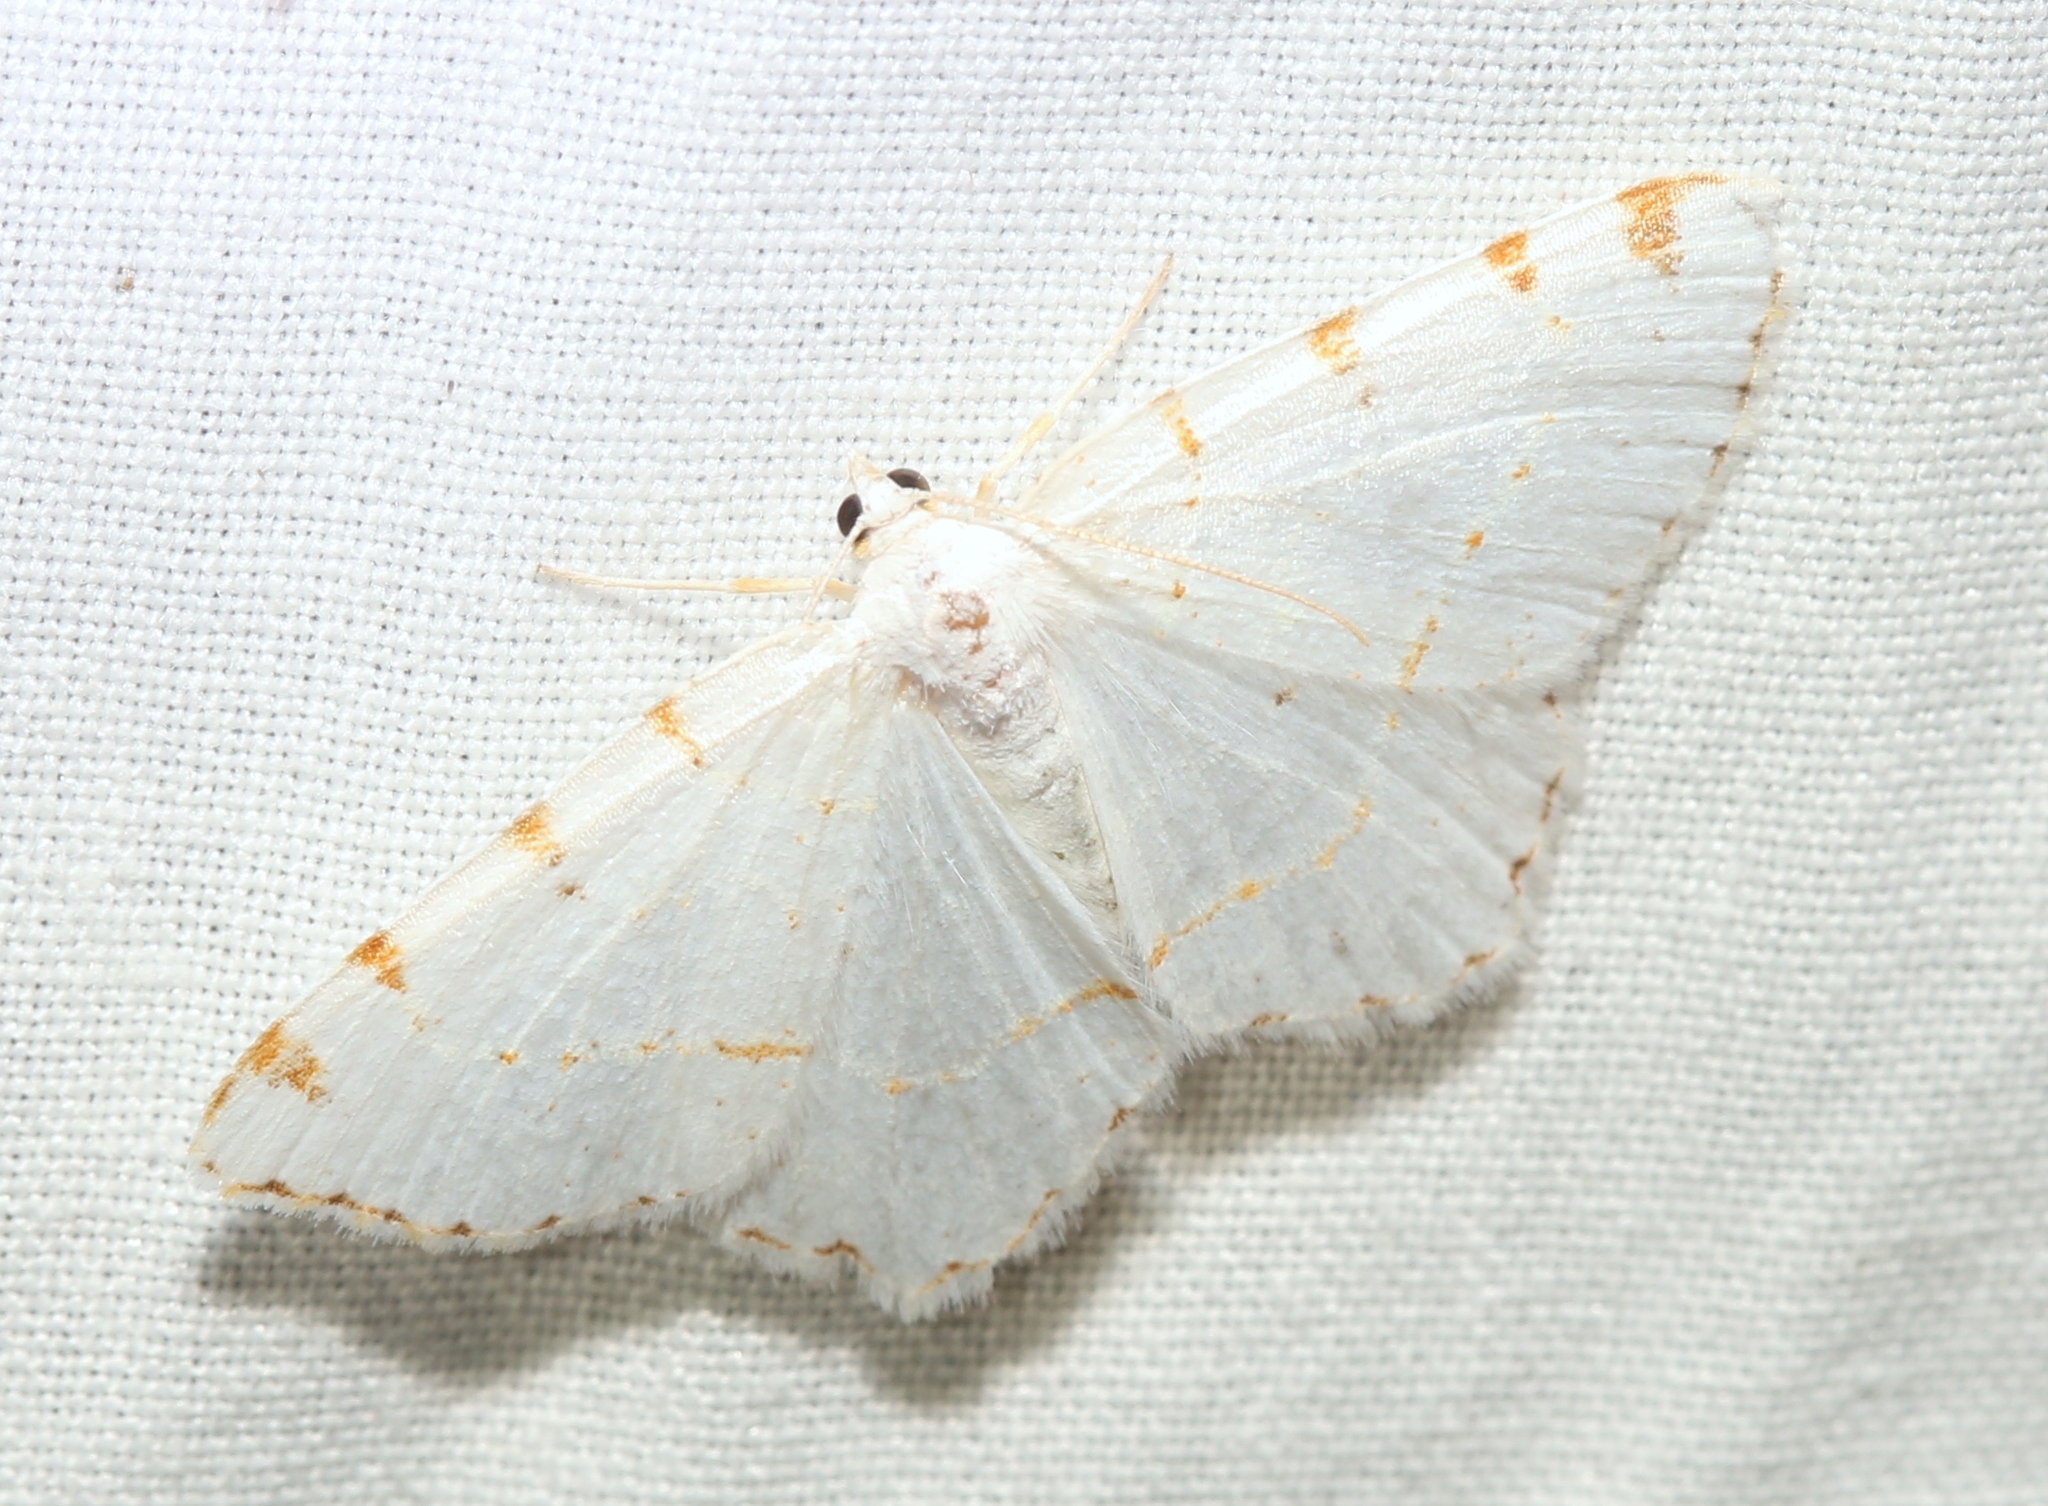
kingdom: Animalia
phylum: Arthropoda
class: Insecta
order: Lepidoptera
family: Geometridae
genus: Macaria
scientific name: Macaria pustularia
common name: Lesser maple spanworm moth
